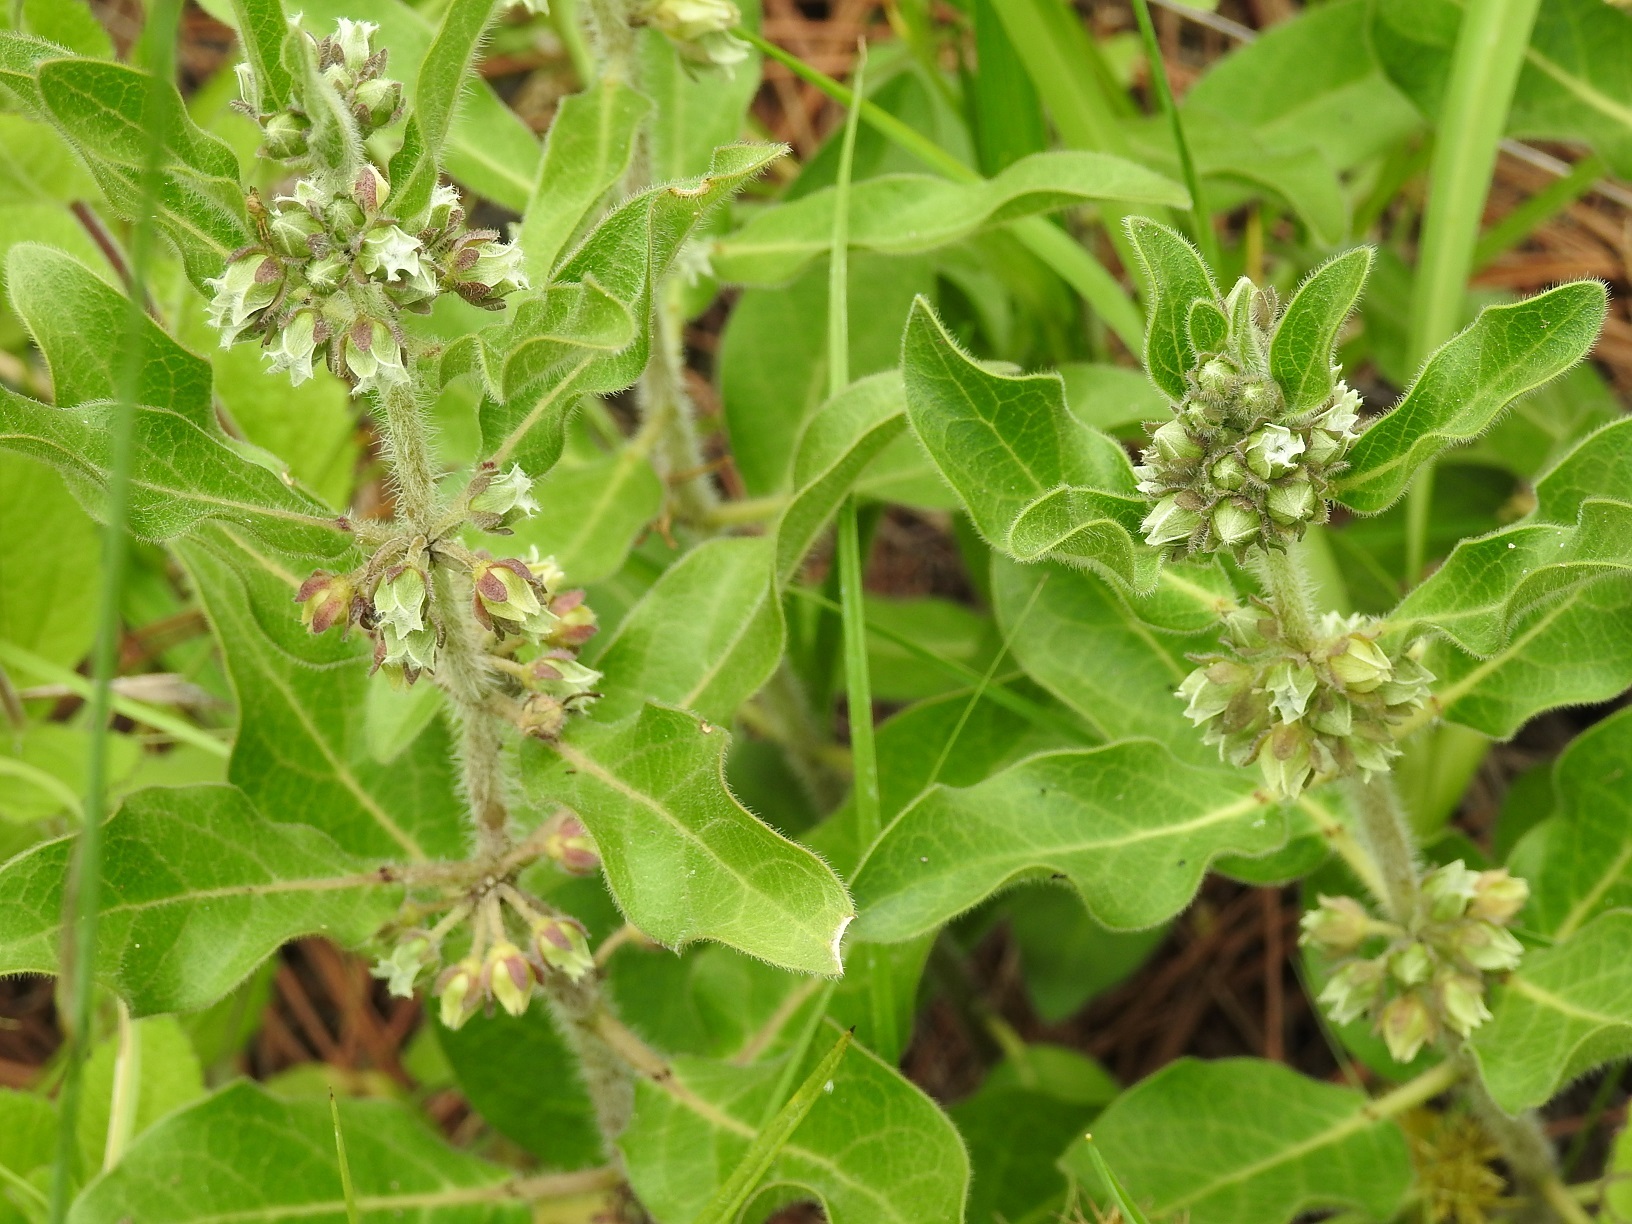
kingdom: Plantae
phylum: Tracheophyta
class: Magnoliopsida
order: Gentianales
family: Apocynaceae
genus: Pherotrichis
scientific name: Pherotrichis villosa
